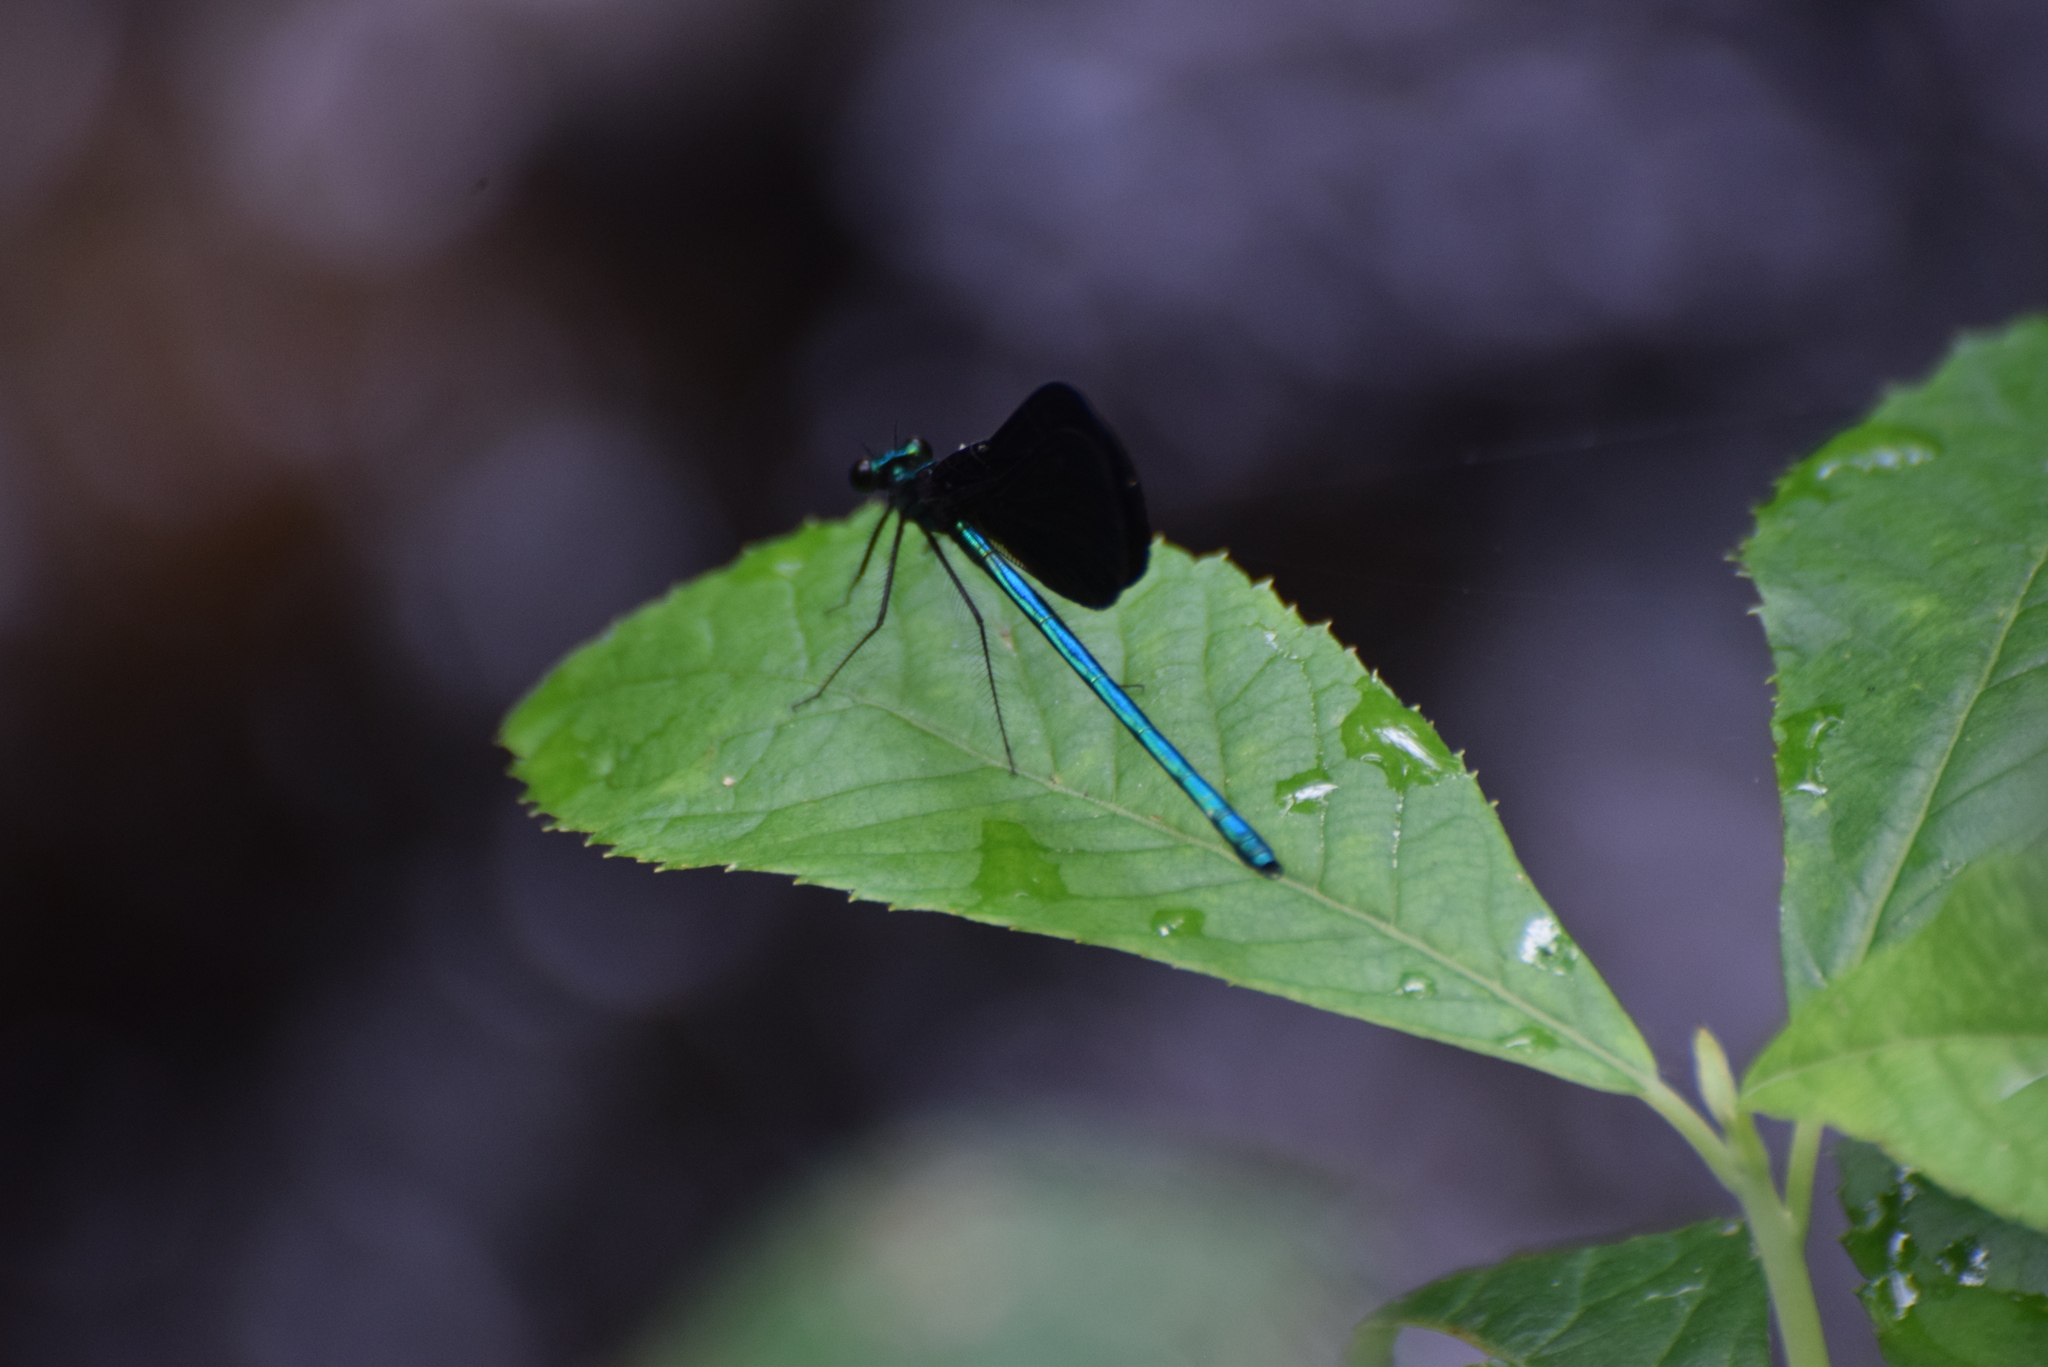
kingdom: Animalia
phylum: Arthropoda
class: Insecta
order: Odonata
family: Calopterygidae
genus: Calopteryx
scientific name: Calopteryx maculata
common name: Ebony jewelwing
